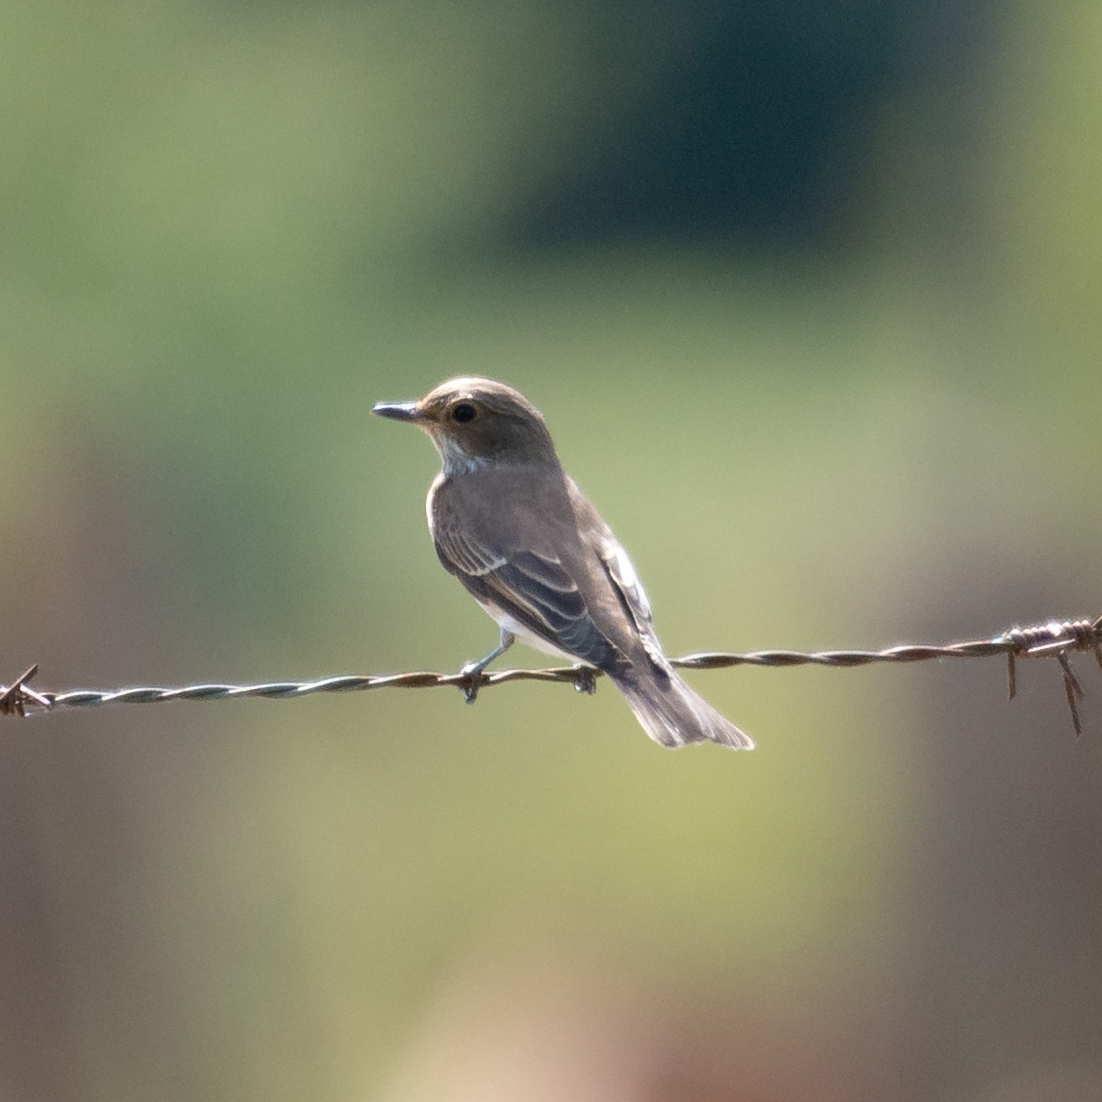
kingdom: Animalia
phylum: Chordata
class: Aves
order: Passeriformes
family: Muscicapidae
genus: Muscicapa
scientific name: Muscicapa striata
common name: Spotted flycatcher
